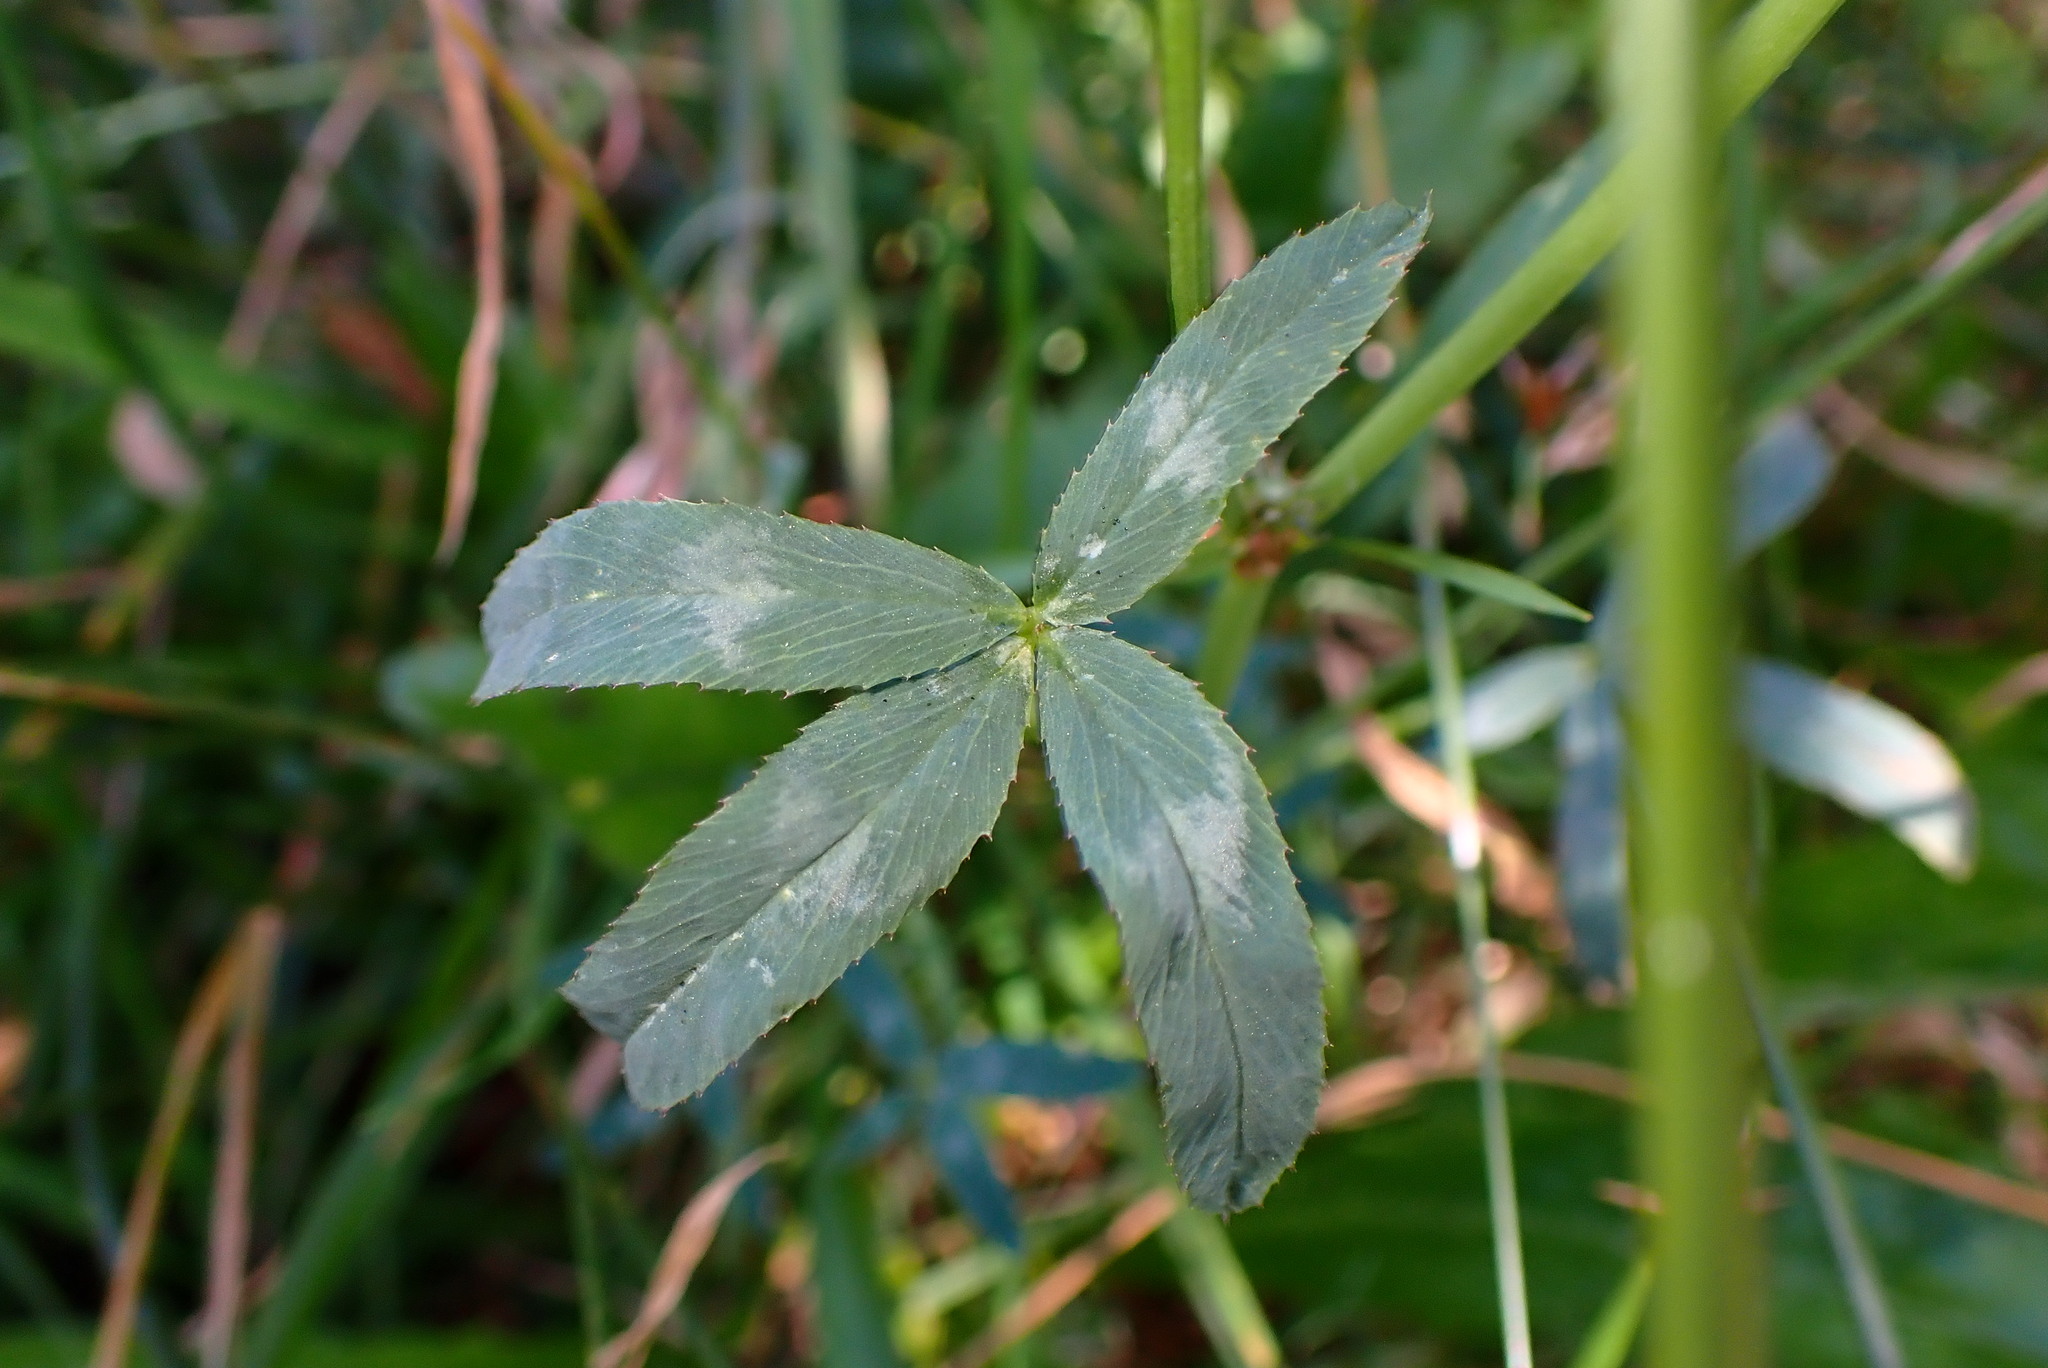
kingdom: Plantae
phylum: Tracheophyta
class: Magnoliopsida
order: Fabales
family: Fabaceae
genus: Trifolium
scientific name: Trifolium repens
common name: White clover
